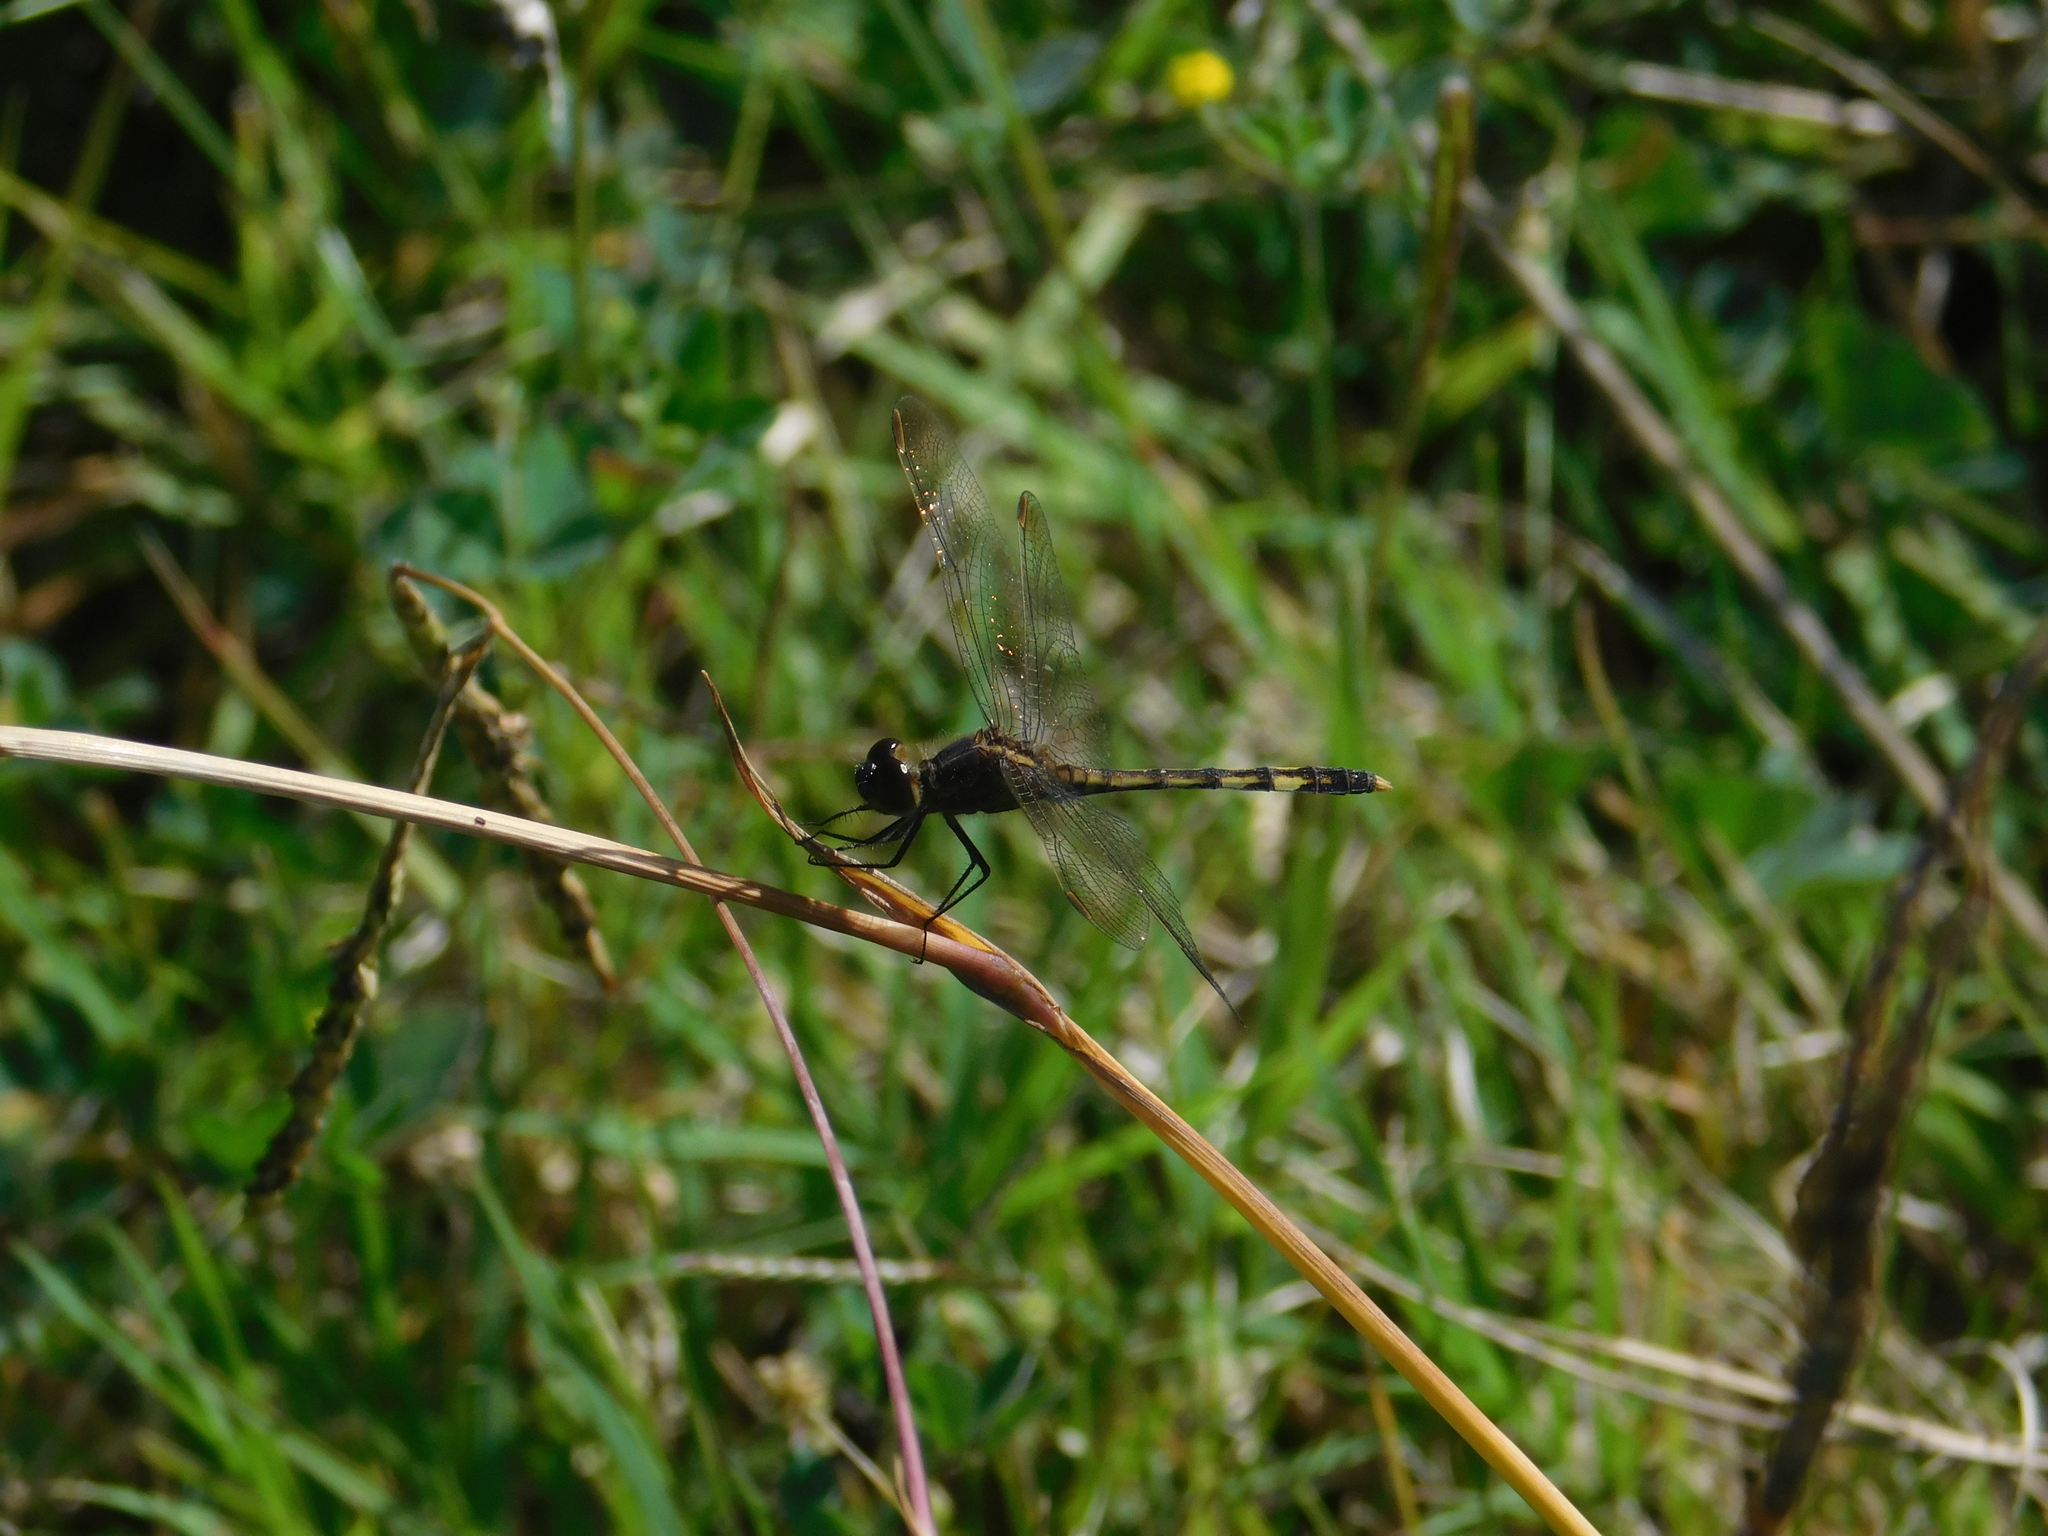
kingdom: Animalia
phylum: Arthropoda
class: Insecta
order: Odonata
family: Libellulidae
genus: Erythrodiplax
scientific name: Erythrodiplax nigricans
